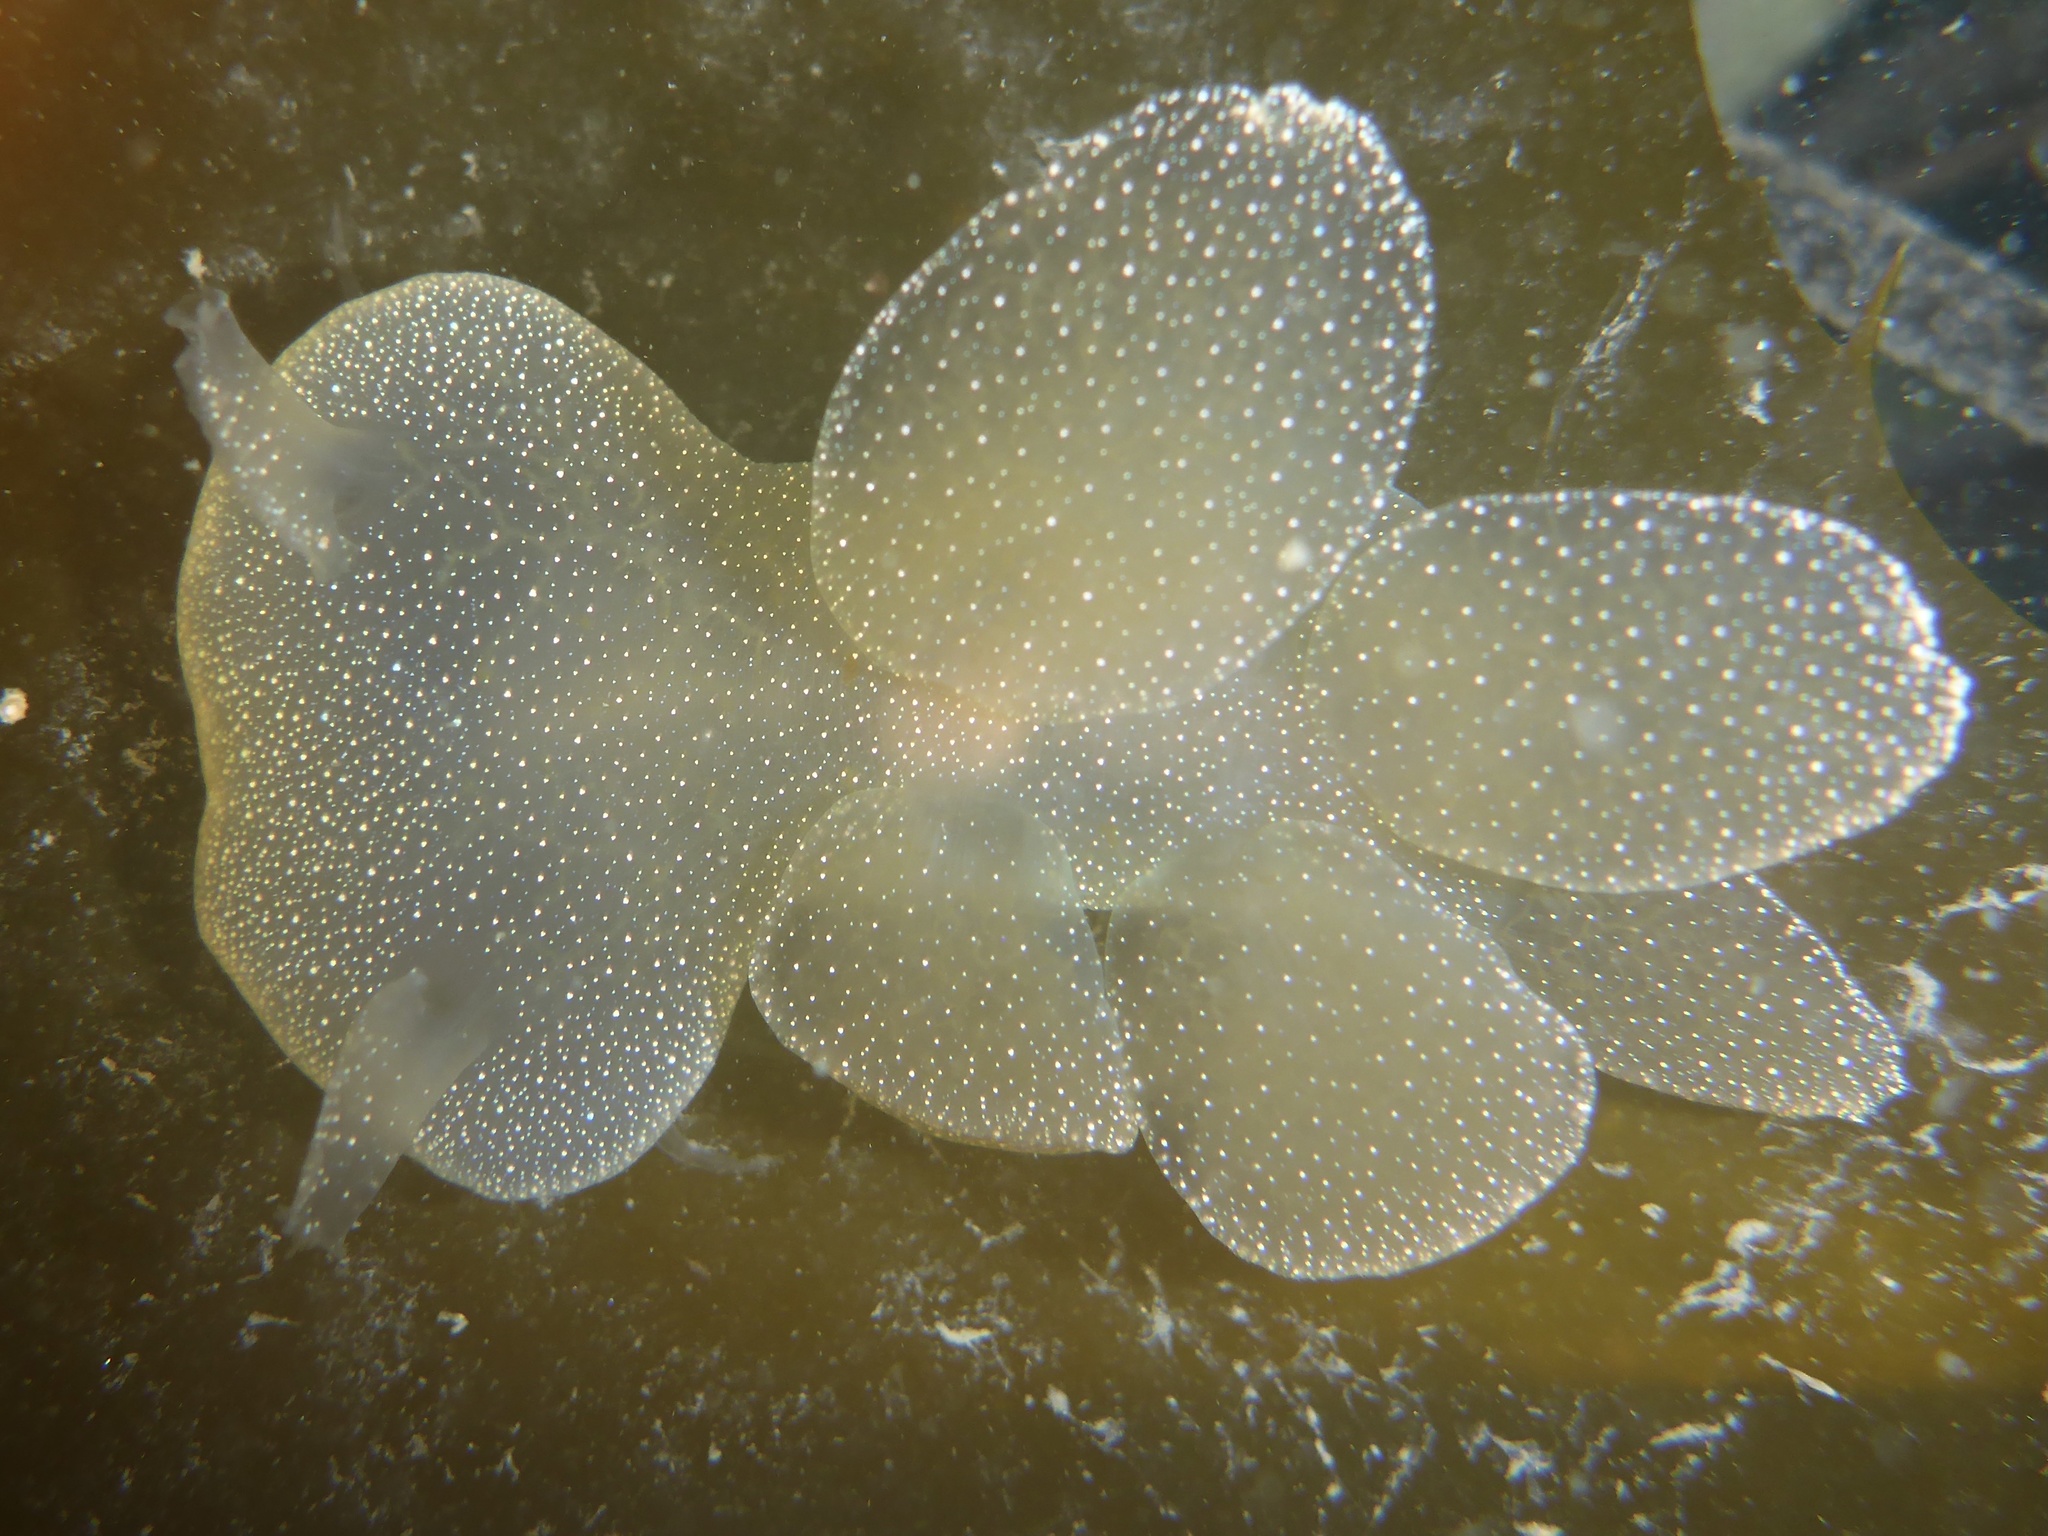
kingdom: Animalia
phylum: Mollusca
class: Gastropoda
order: Nudibranchia
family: Tethydidae
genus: Melibe
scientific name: Melibe leonina
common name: Lion nudibranch
